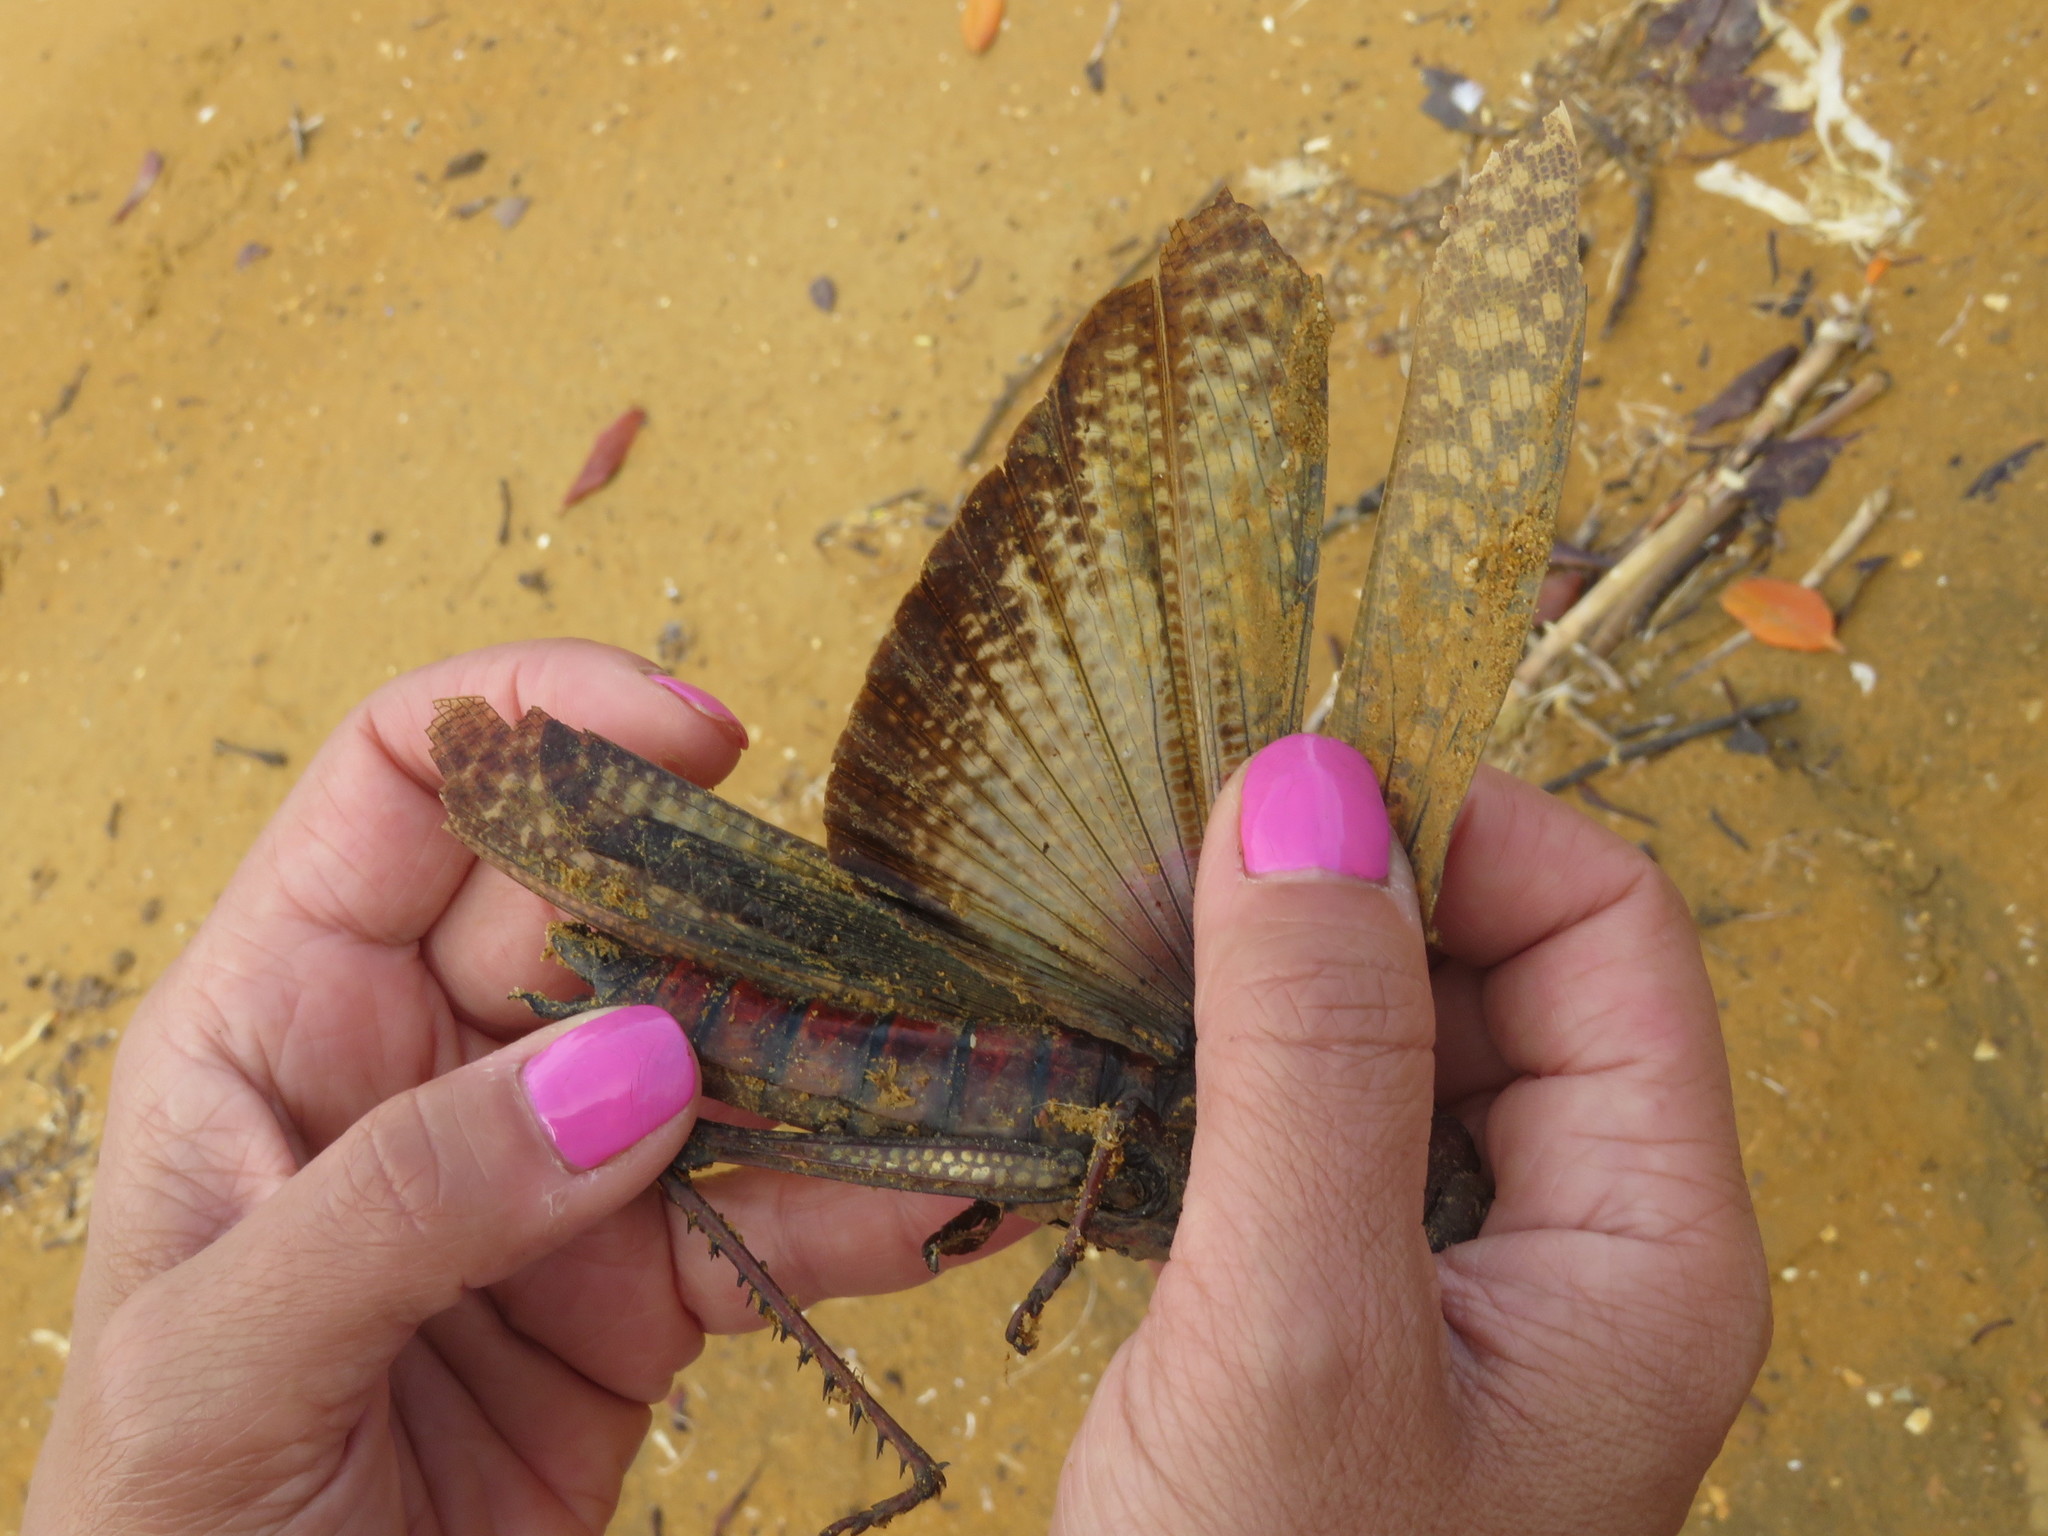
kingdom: Animalia
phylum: Arthropoda
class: Insecta
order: Orthoptera
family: Romaleidae
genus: Tropidacris
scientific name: Tropidacris collaris
